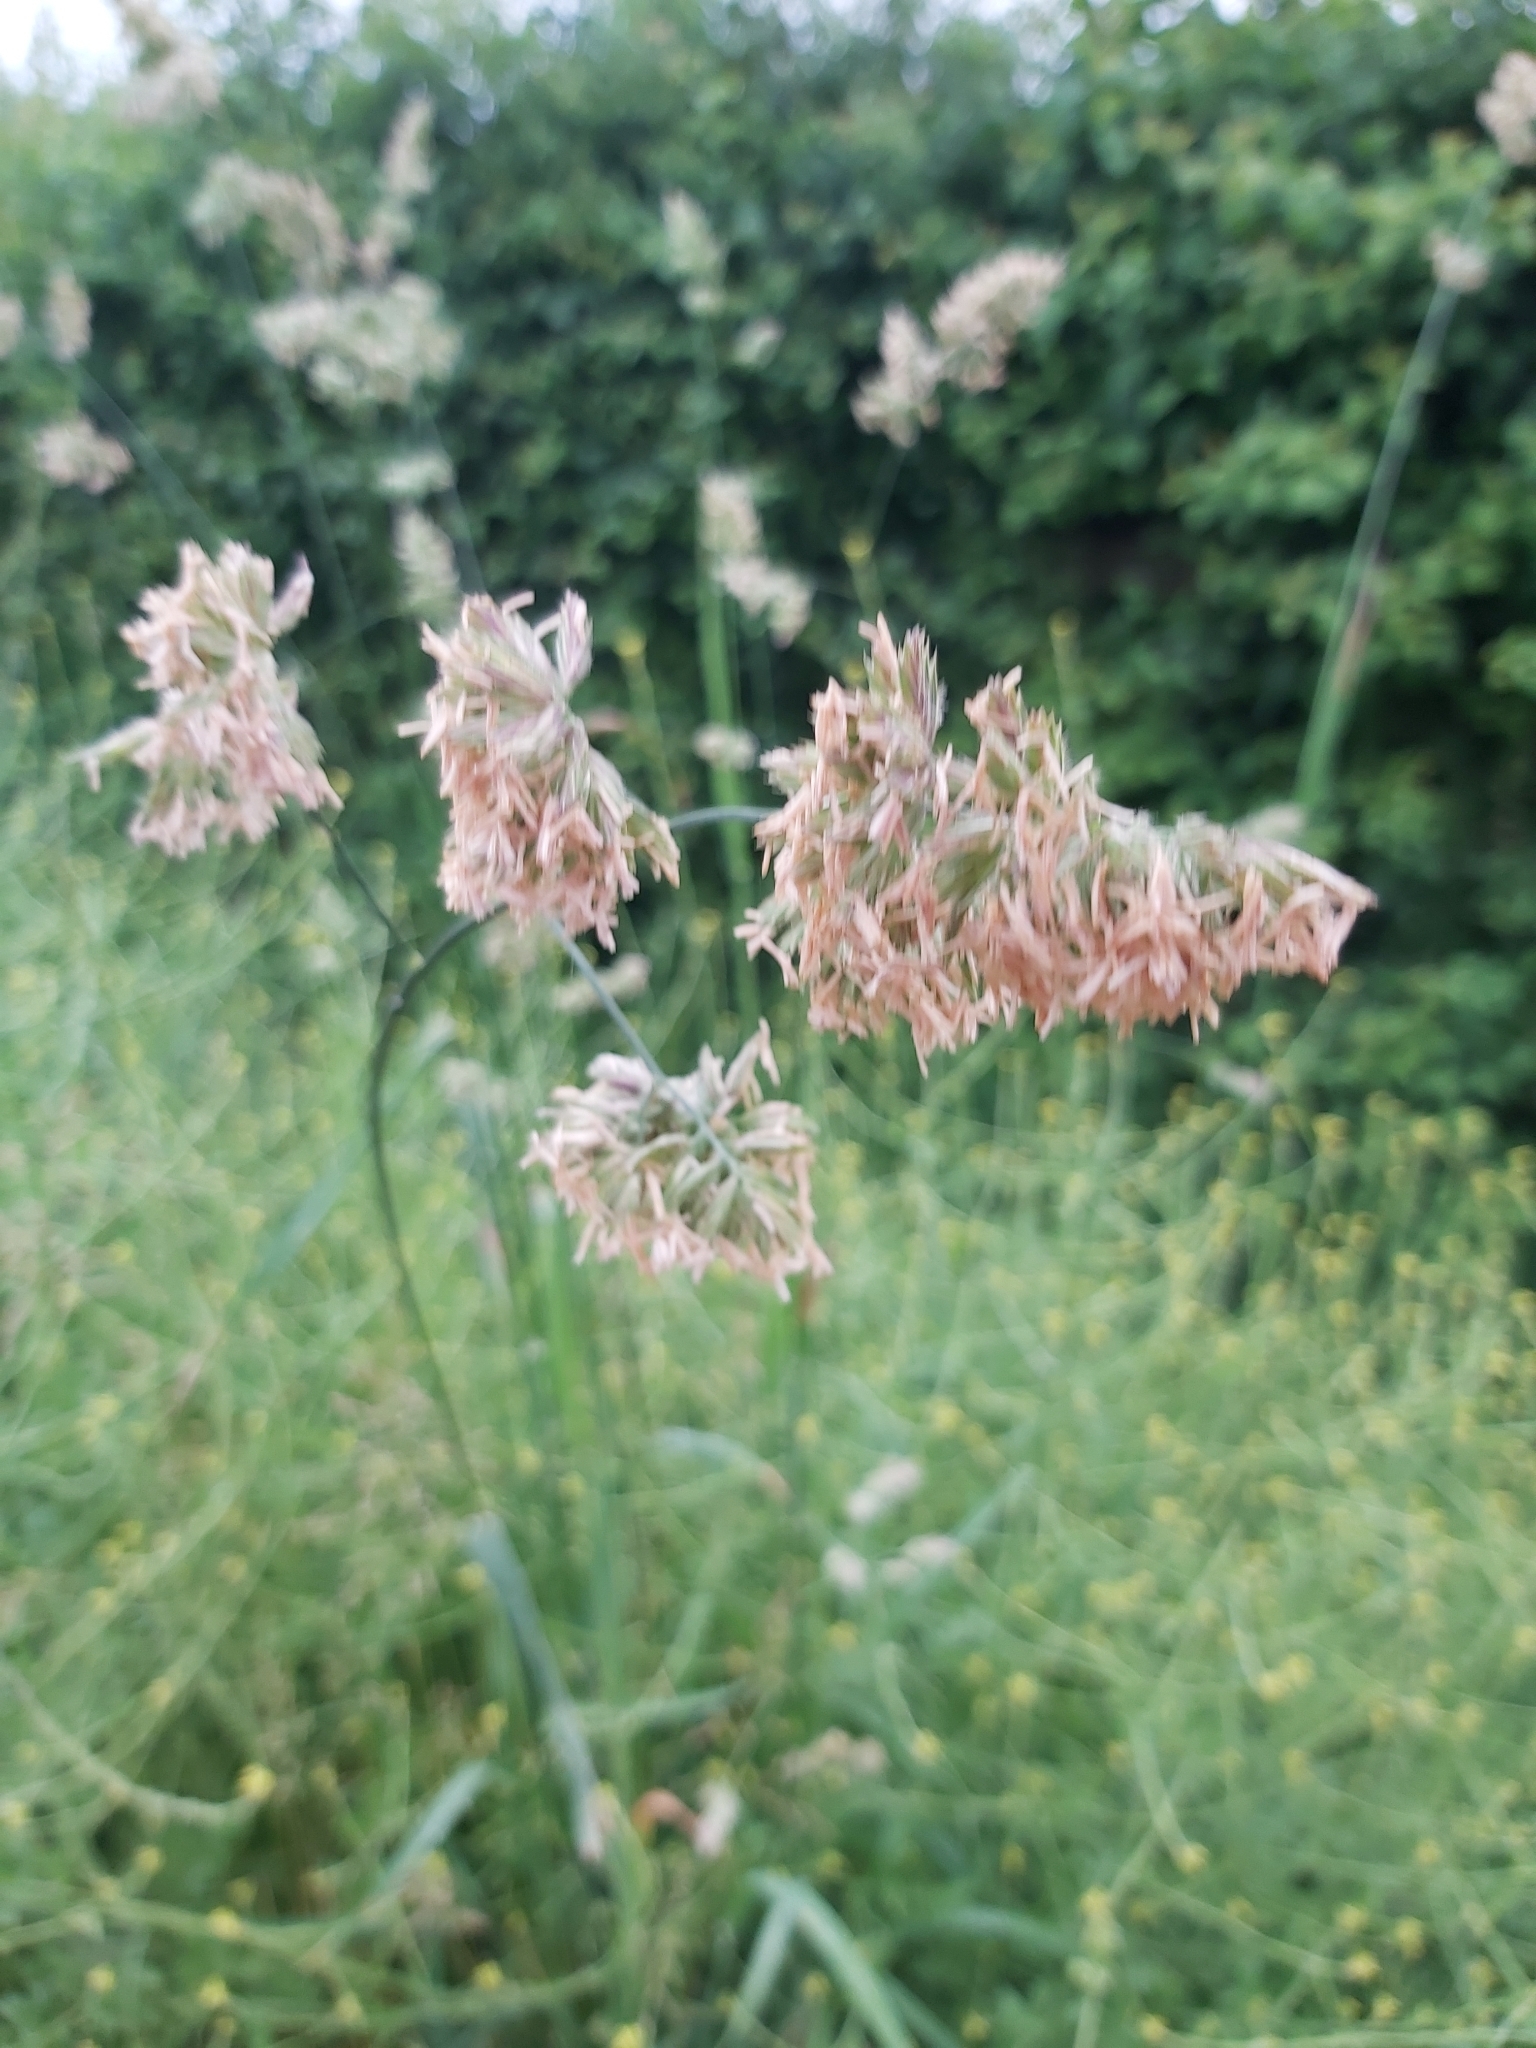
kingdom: Plantae
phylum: Tracheophyta
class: Liliopsida
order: Poales
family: Poaceae
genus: Dactylis
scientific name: Dactylis glomerata
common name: Orchardgrass
